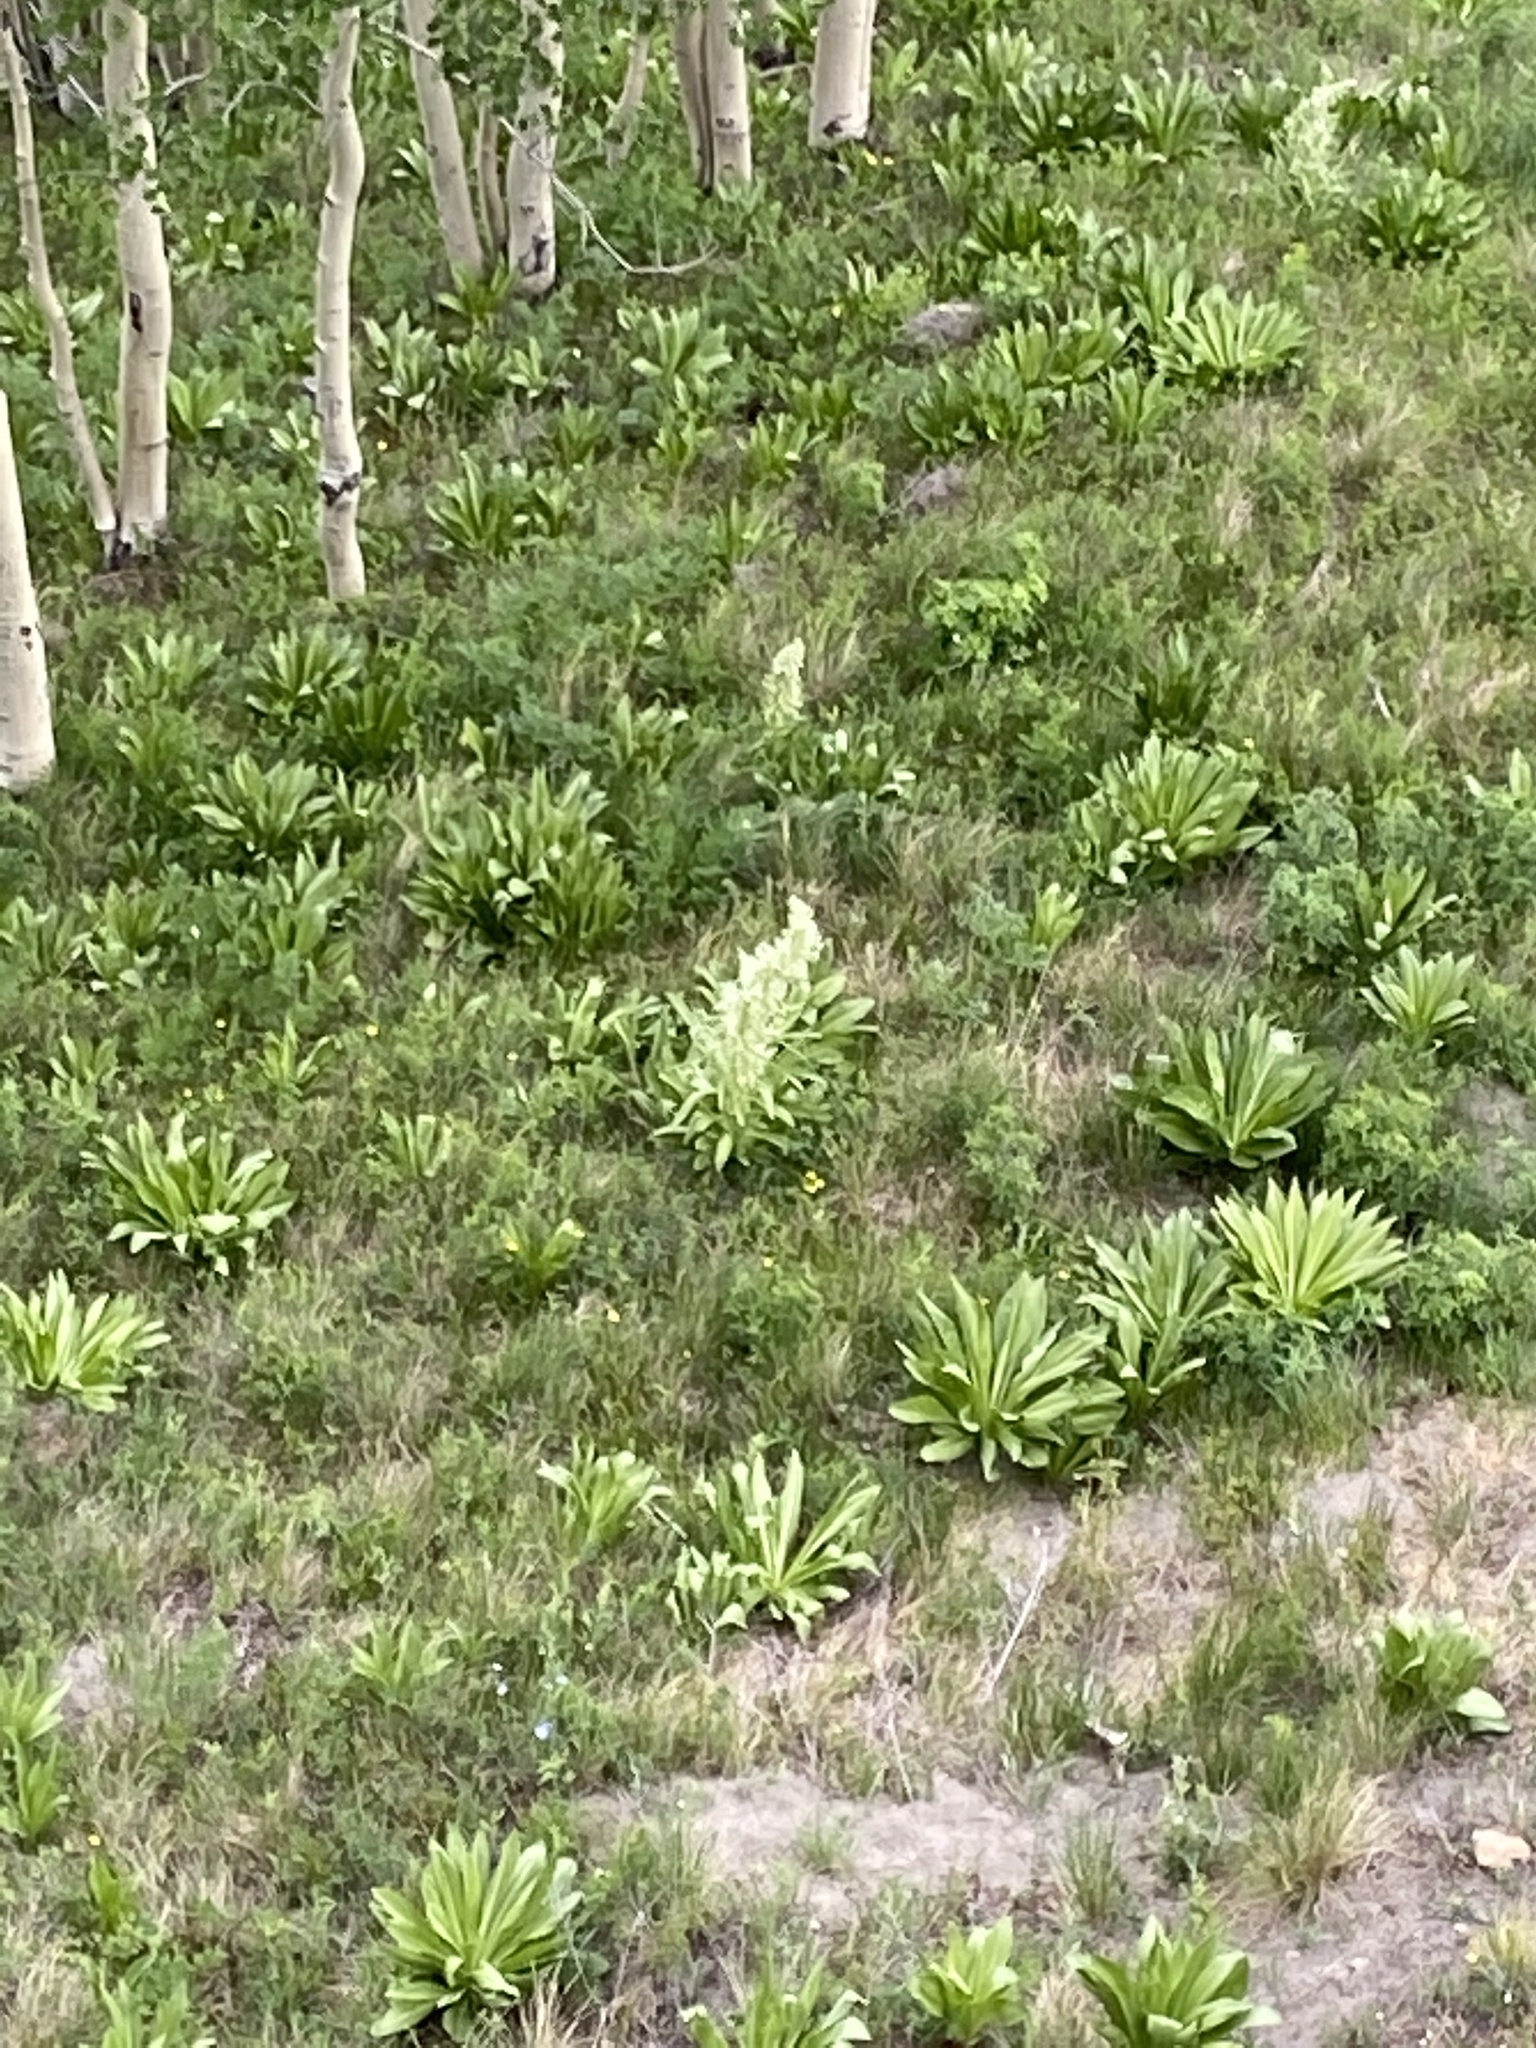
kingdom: Plantae
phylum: Tracheophyta
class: Magnoliopsida
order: Gentianales
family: Gentianaceae
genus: Frasera
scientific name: Frasera speciosa
